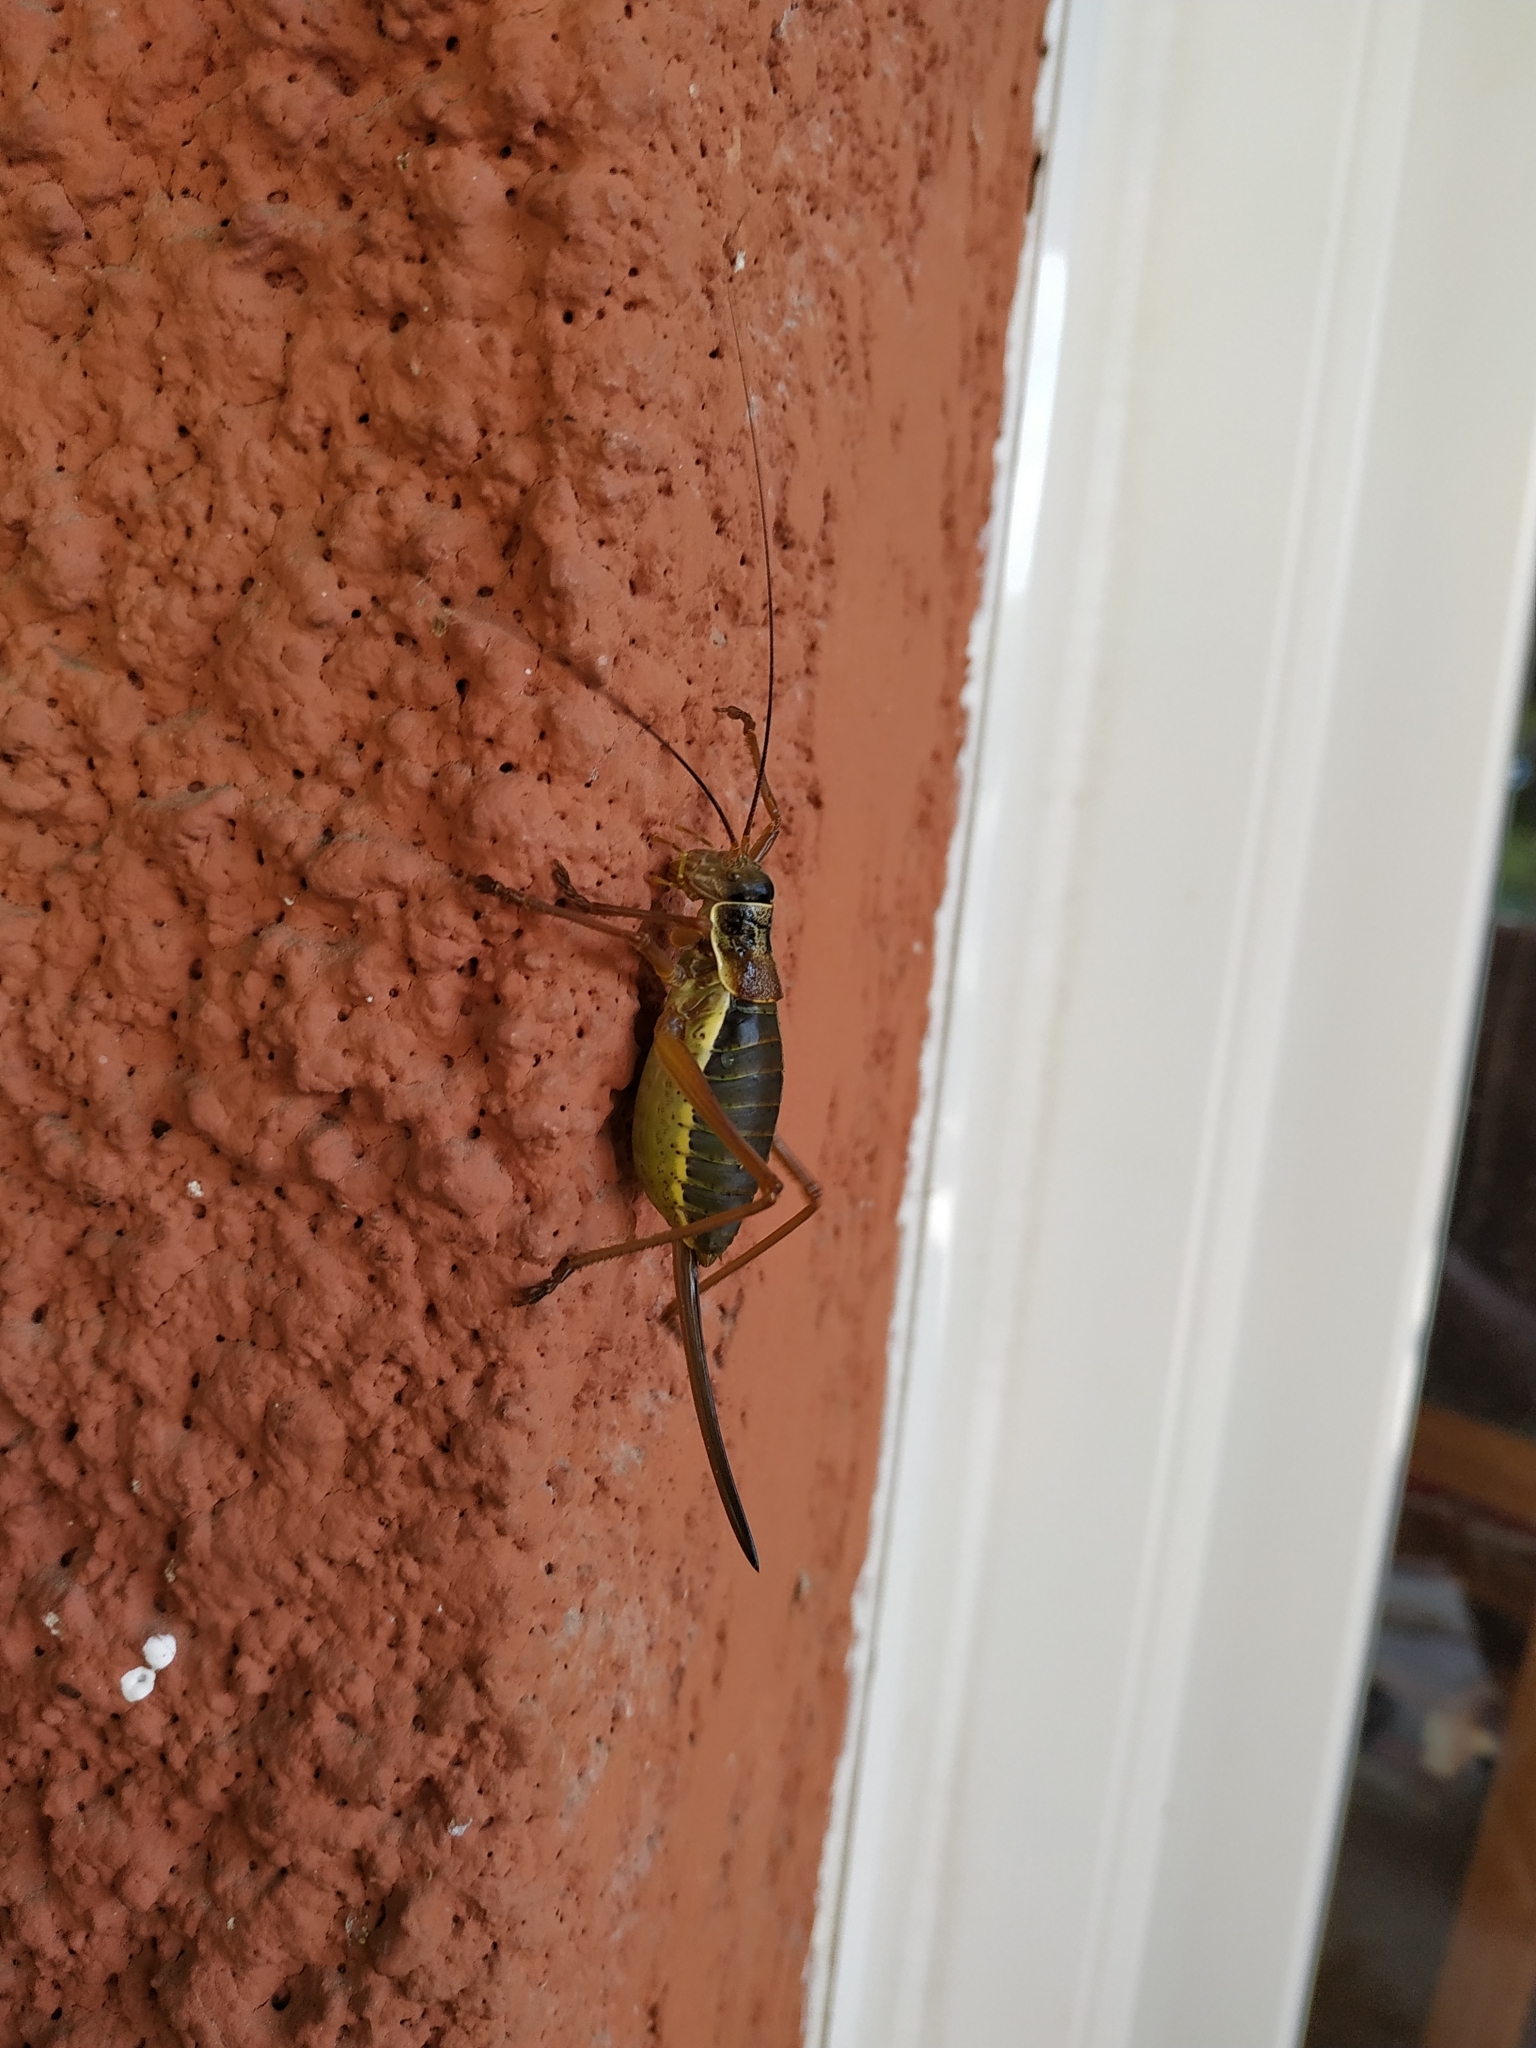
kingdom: Animalia
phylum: Arthropoda
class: Insecta
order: Orthoptera
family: Tettigoniidae
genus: Ephippiger
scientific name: Ephippiger diurnus
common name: Western saddle bush-cricket
